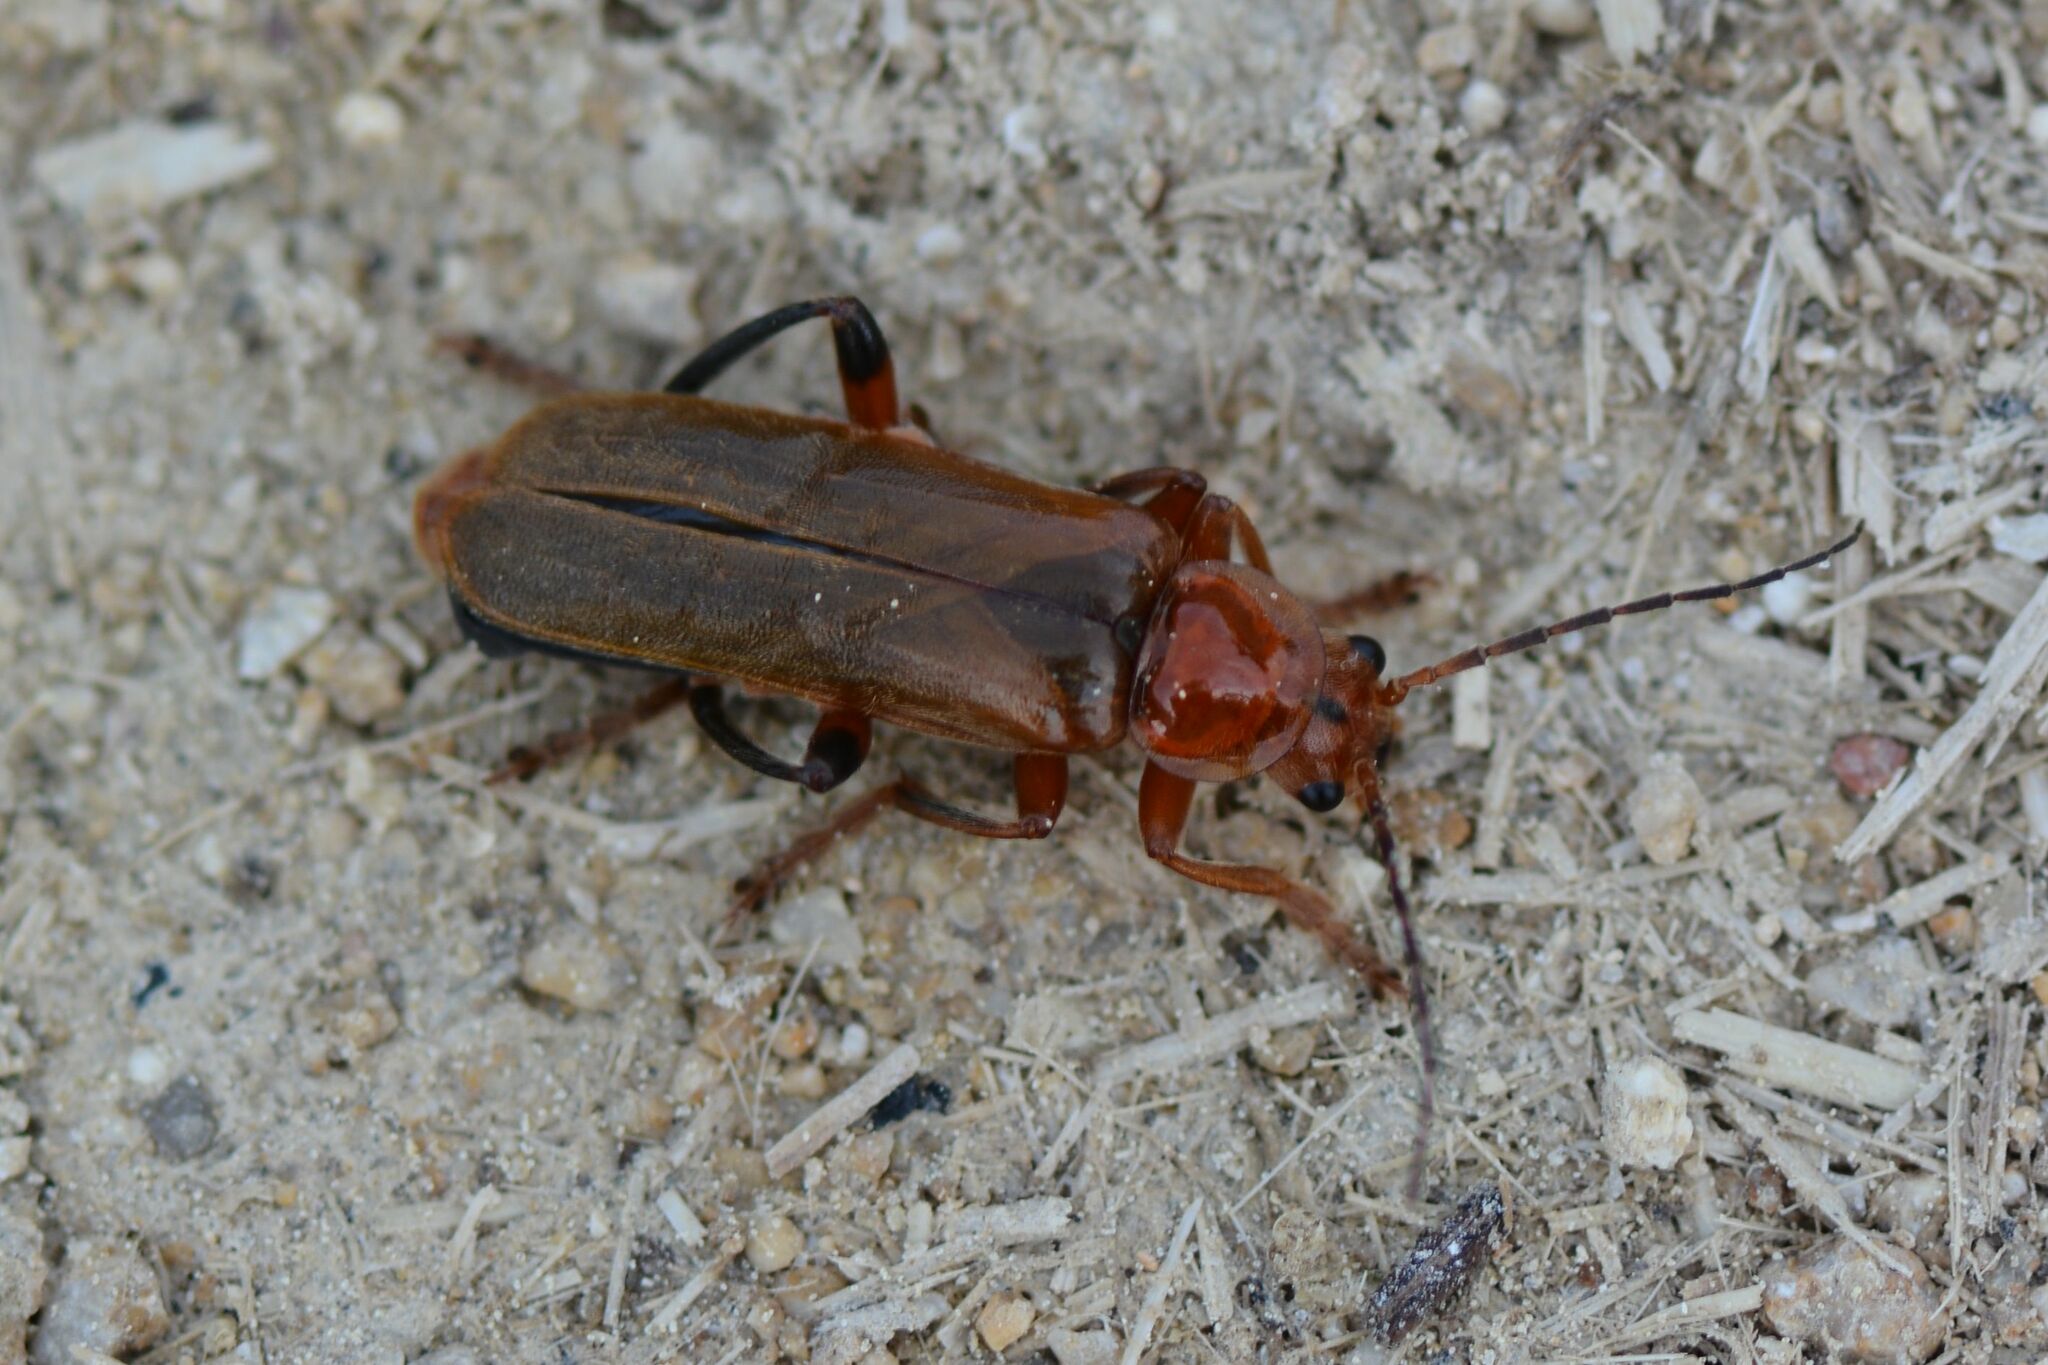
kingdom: Animalia
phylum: Arthropoda
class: Insecta
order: Coleoptera
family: Cantharidae
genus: Cantharis
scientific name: Cantharis livida
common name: Livid soldier beetle
